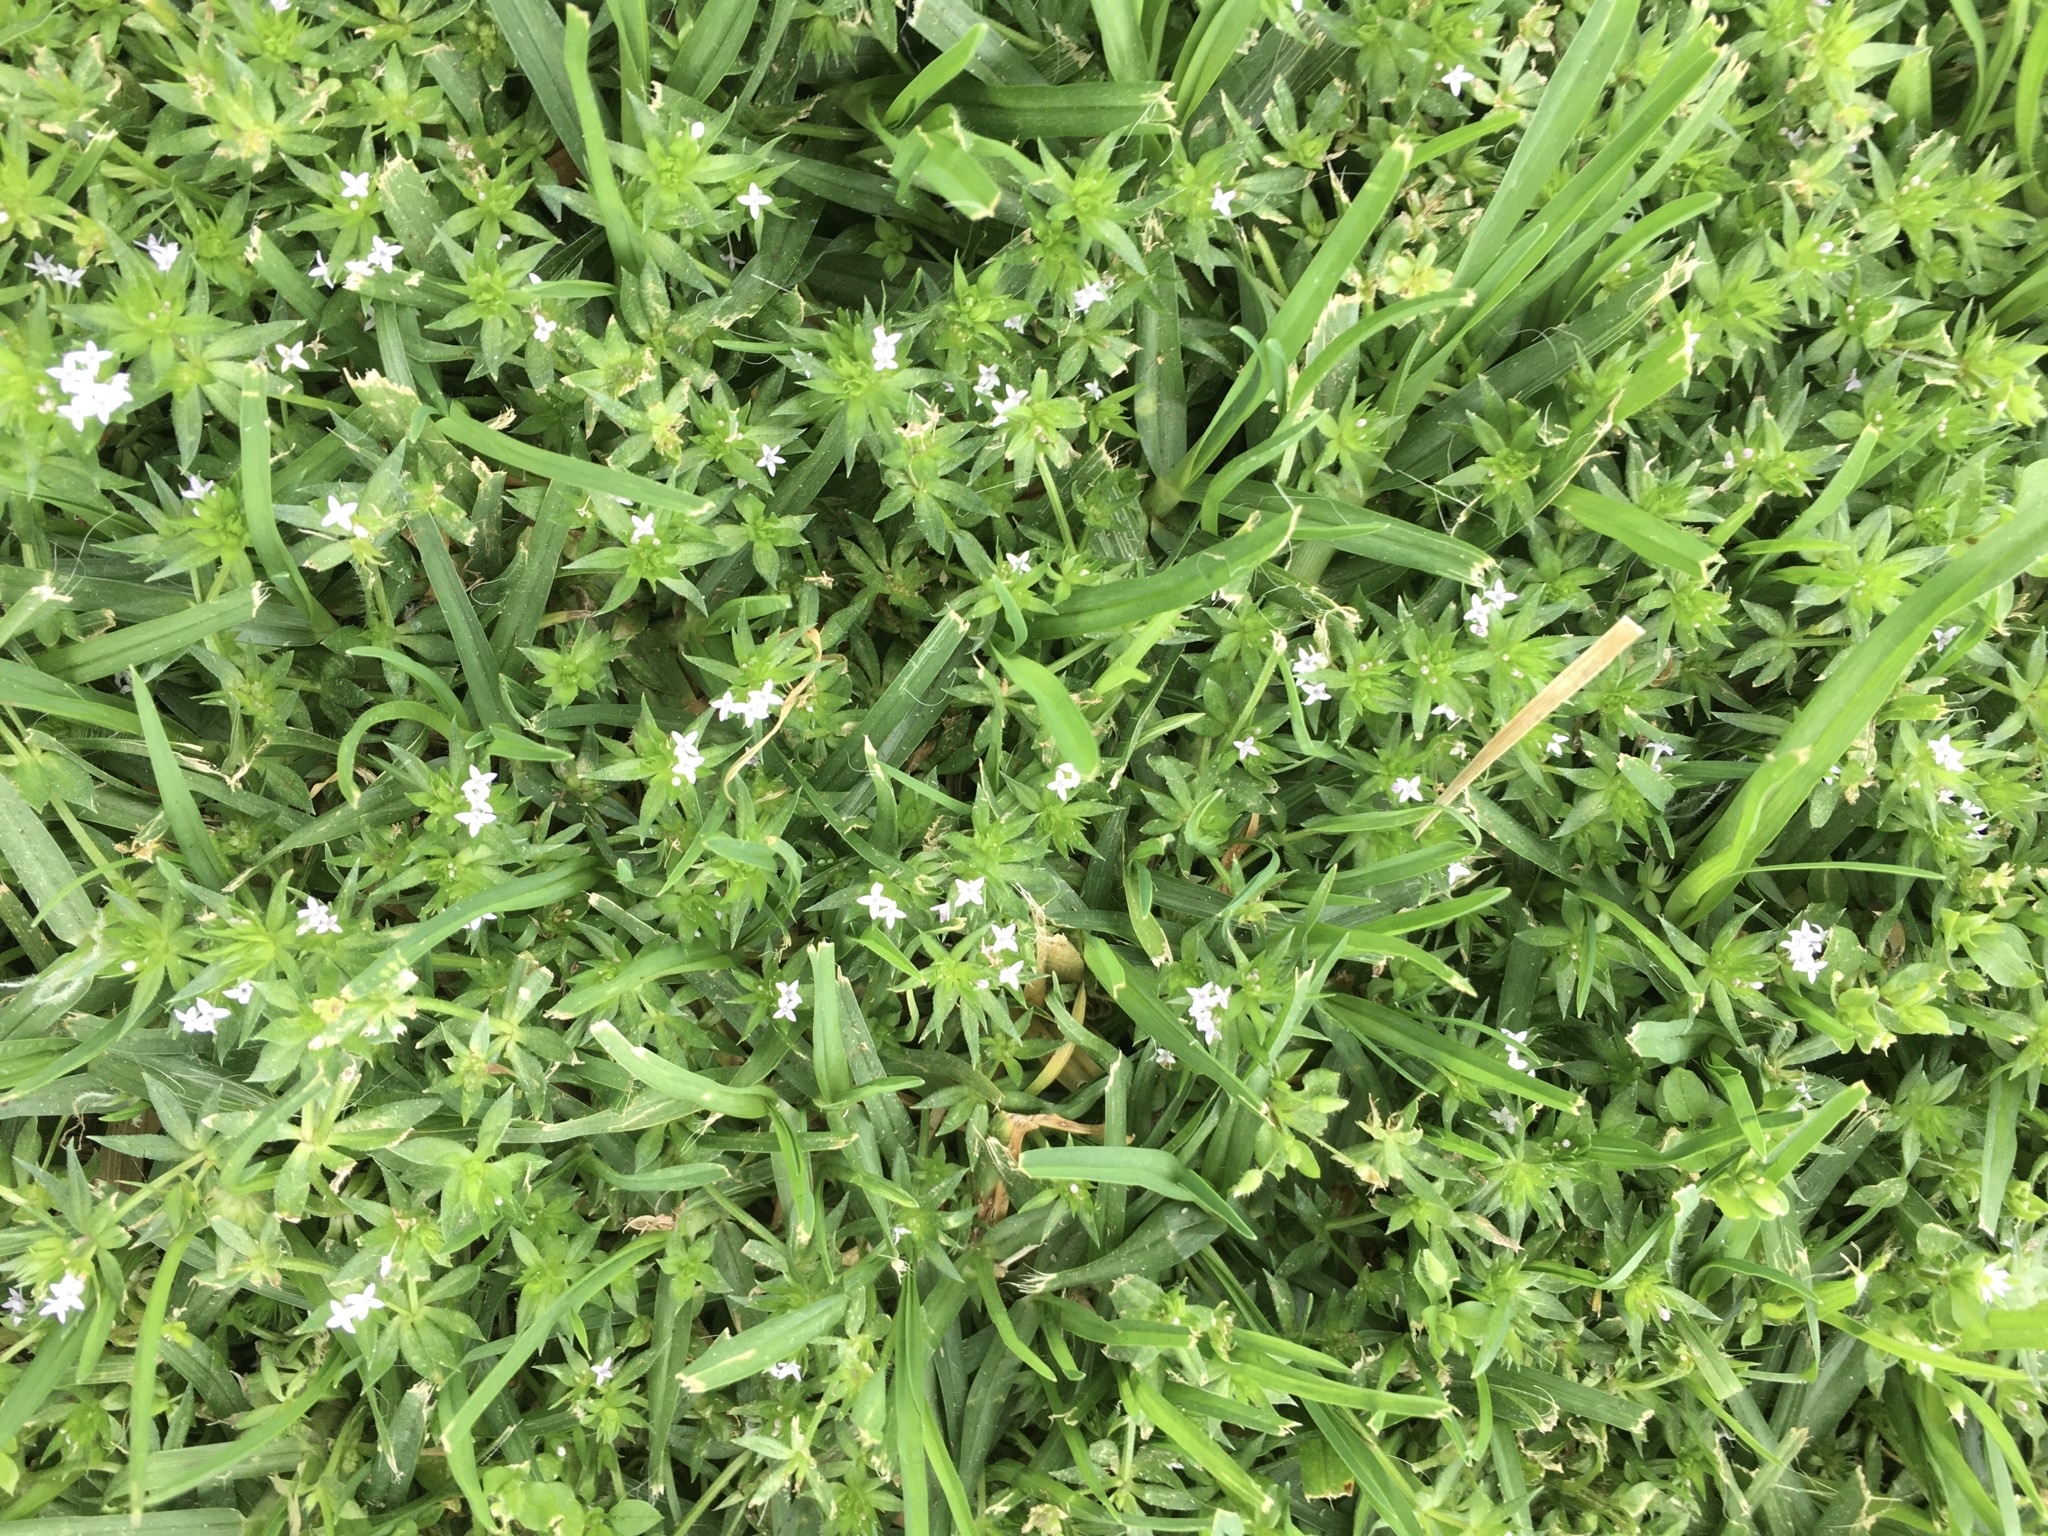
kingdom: Plantae
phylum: Tracheophyta
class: Magnoliopsida
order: Gentianales
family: Rubiaceae
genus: Sherardia
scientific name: Sherardia arvensis
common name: Field madder
